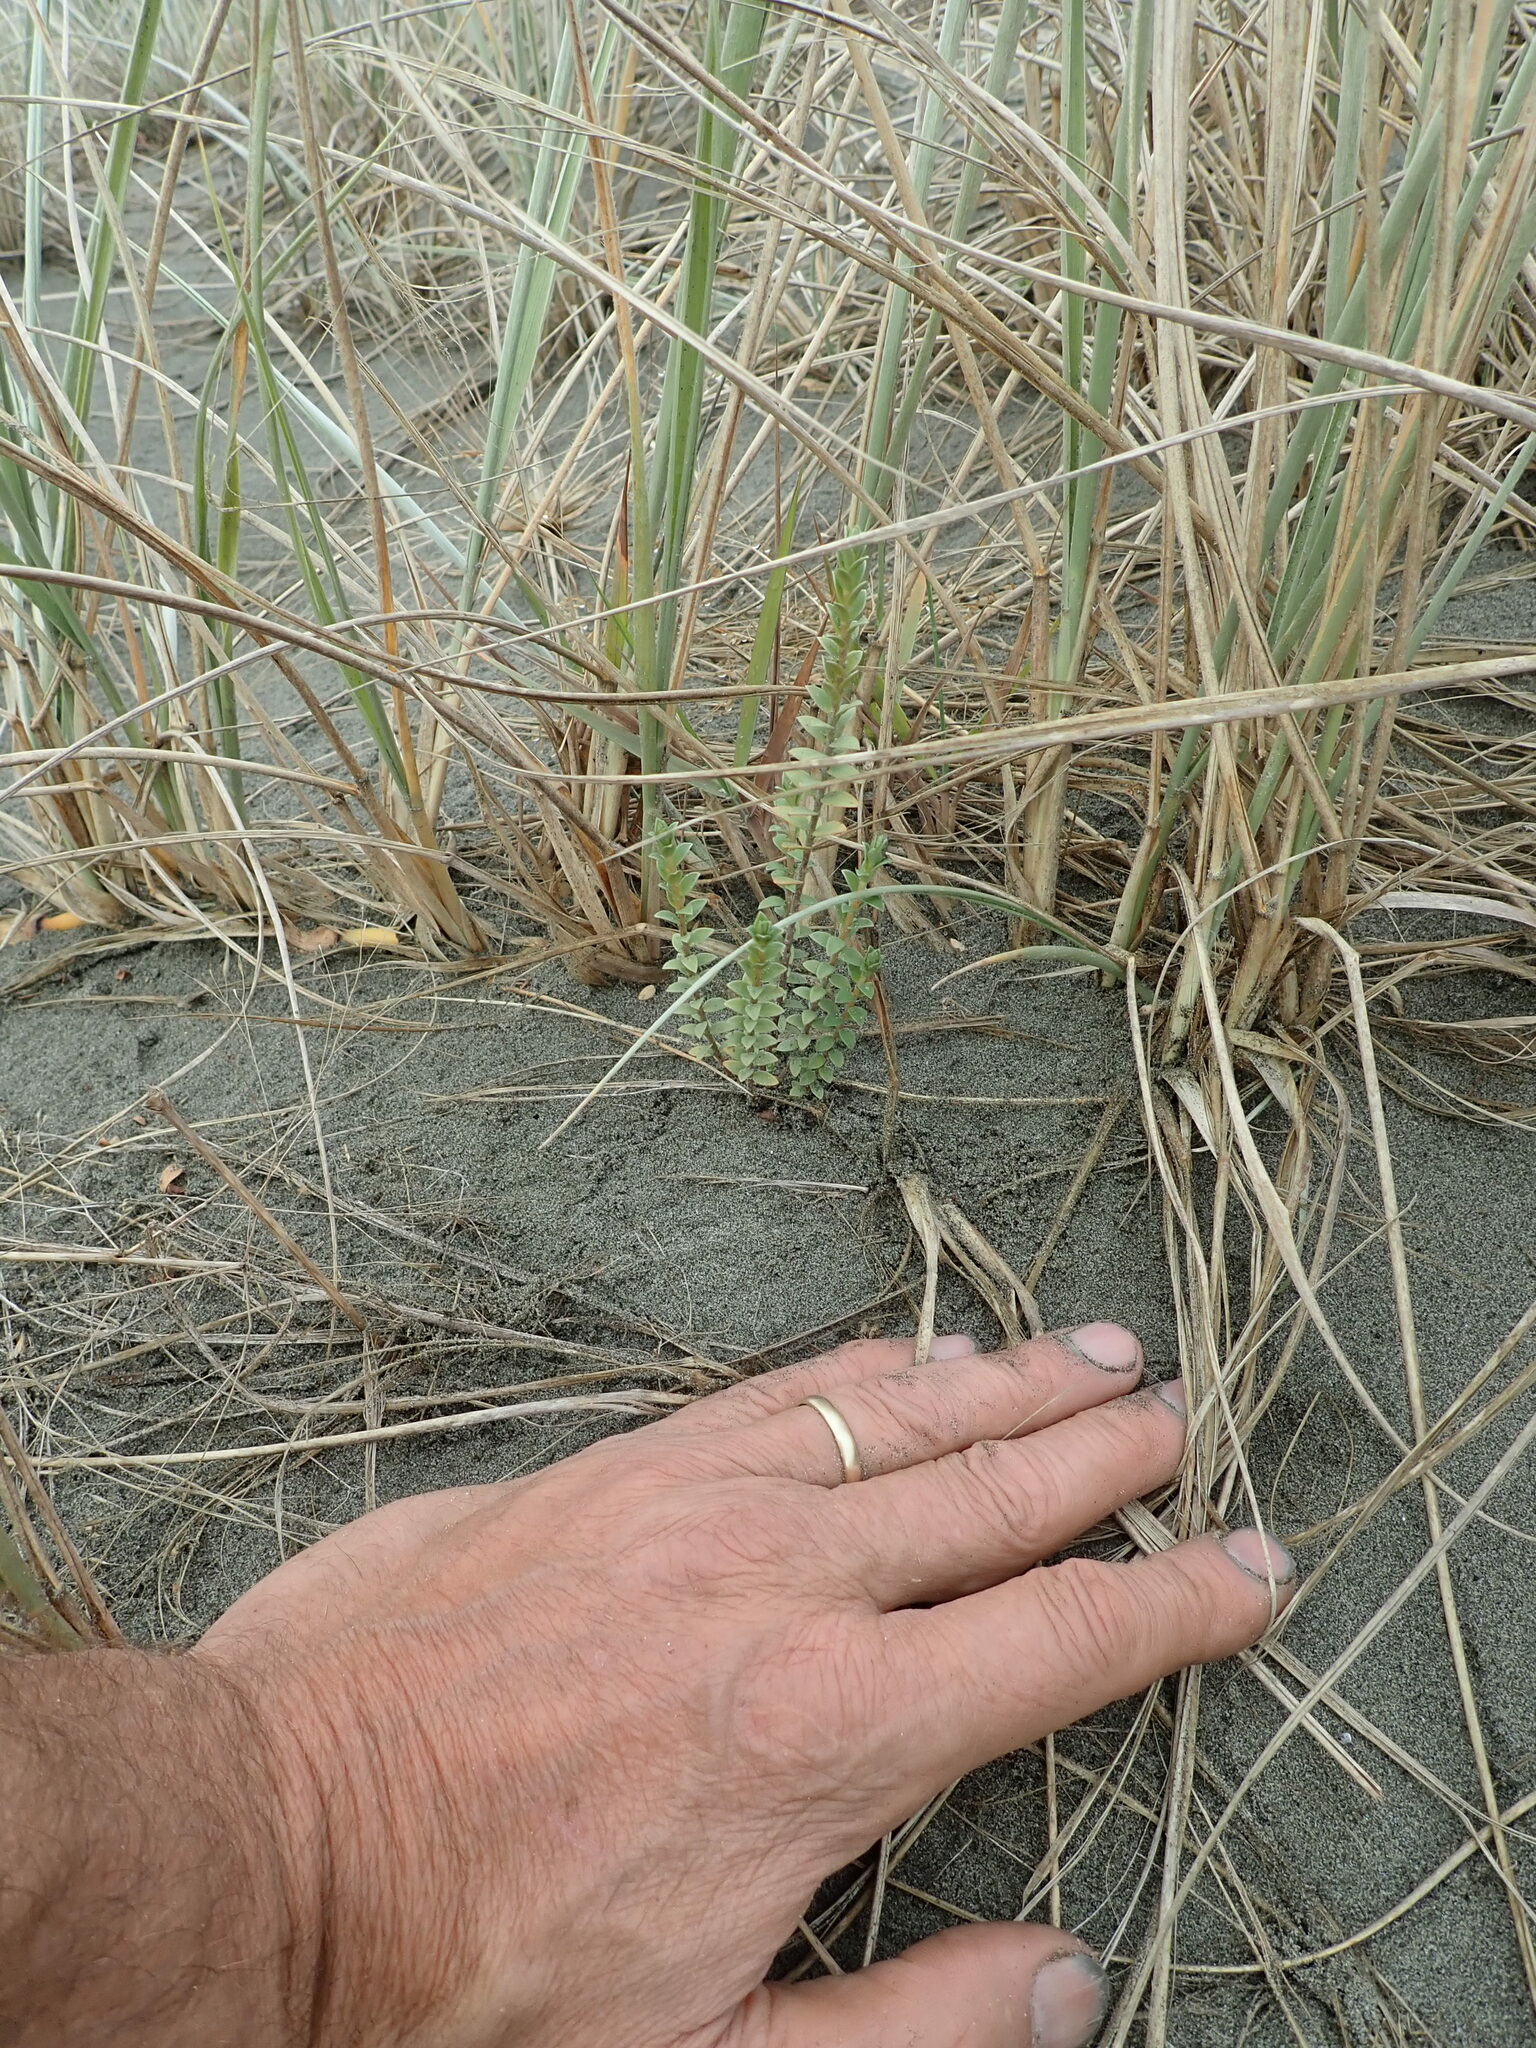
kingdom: Plantae
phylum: Tracheophyta
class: Magnoliopsida
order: Malvales
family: Thymelaeaceae
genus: Pimelea
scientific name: Pimelea villosa
